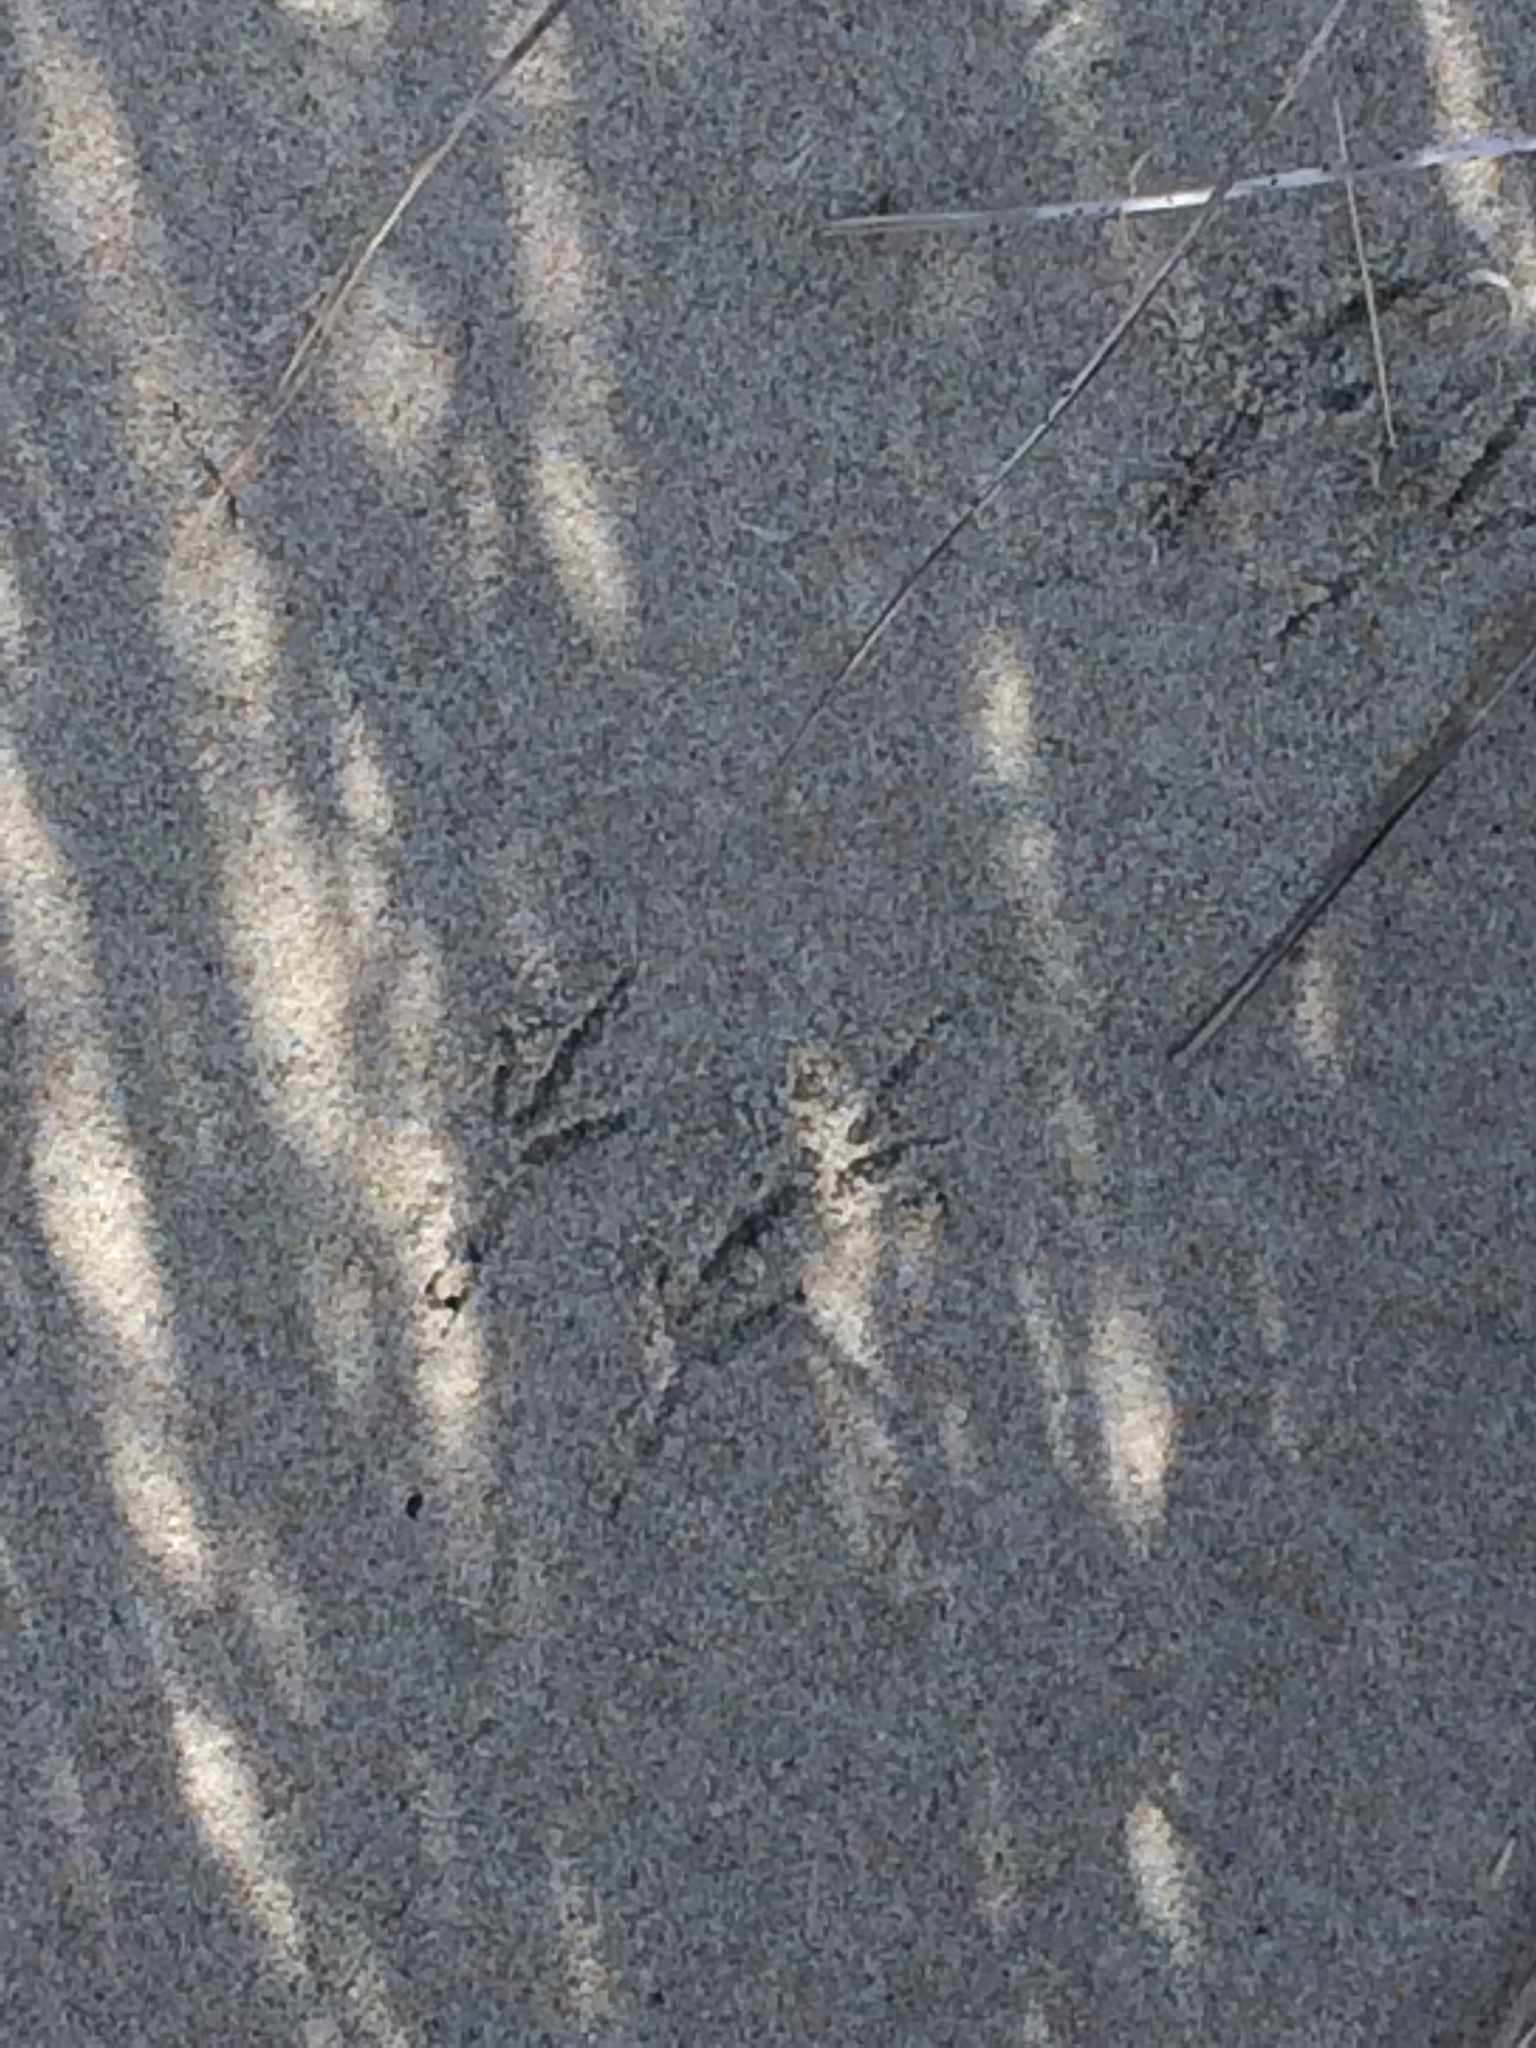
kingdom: Animalia
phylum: Chordata
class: Aves
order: Passeriformes
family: Motacillidae
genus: Anthus
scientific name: Anthus novaeseelandiae
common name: New zealand pipit
